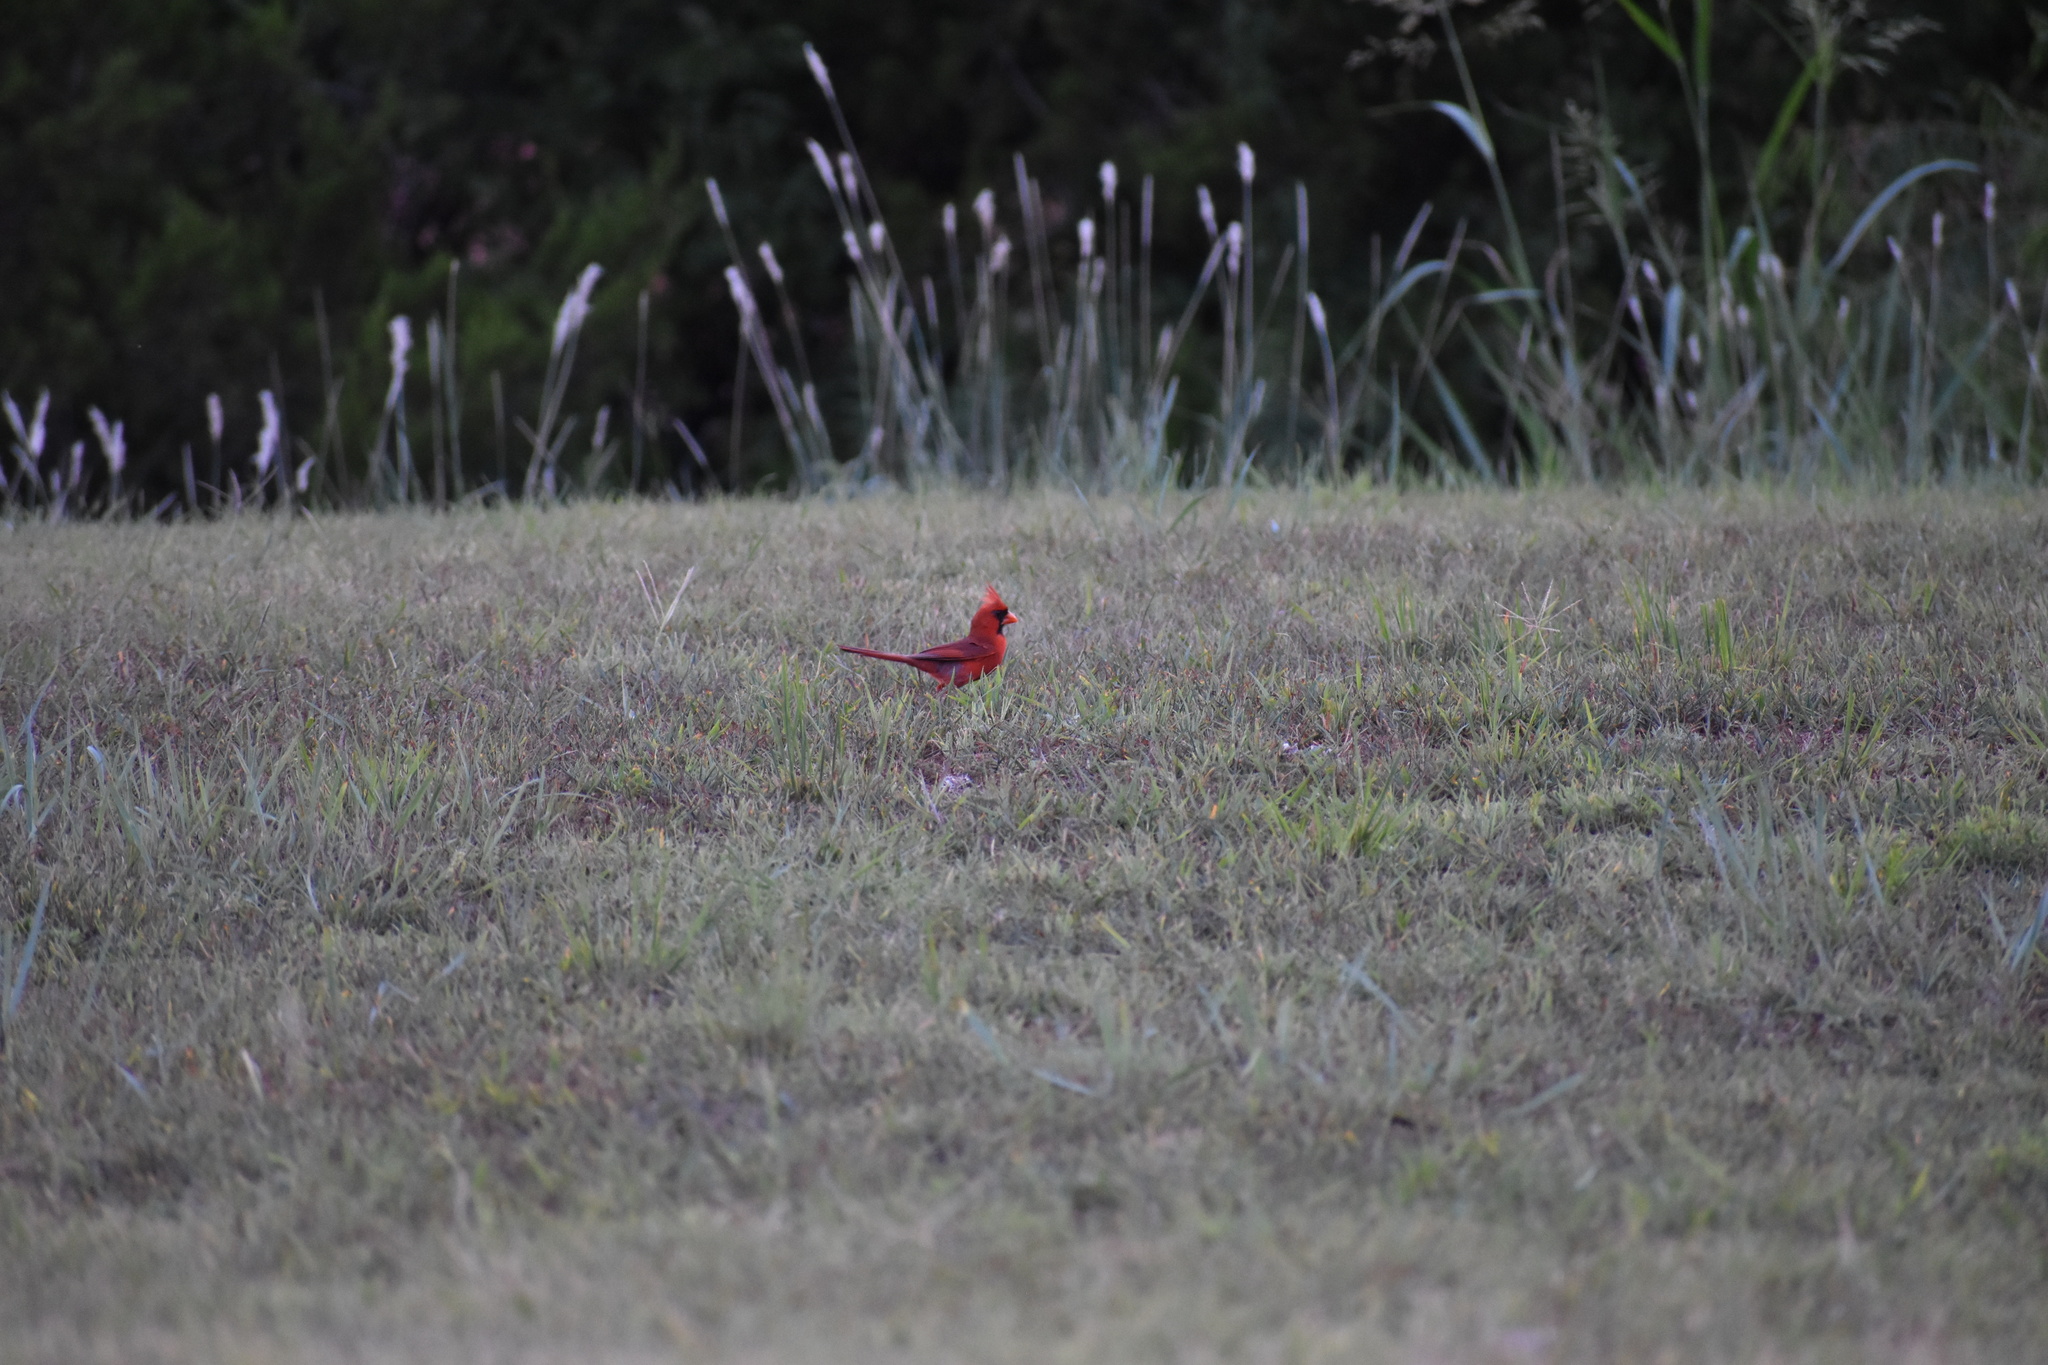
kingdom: Animalia
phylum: Chordata
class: Aves
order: Passeriformes
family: Cardinalidae
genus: Cardinalis
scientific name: Cardinalis cardinalis
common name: Northern cardinal
